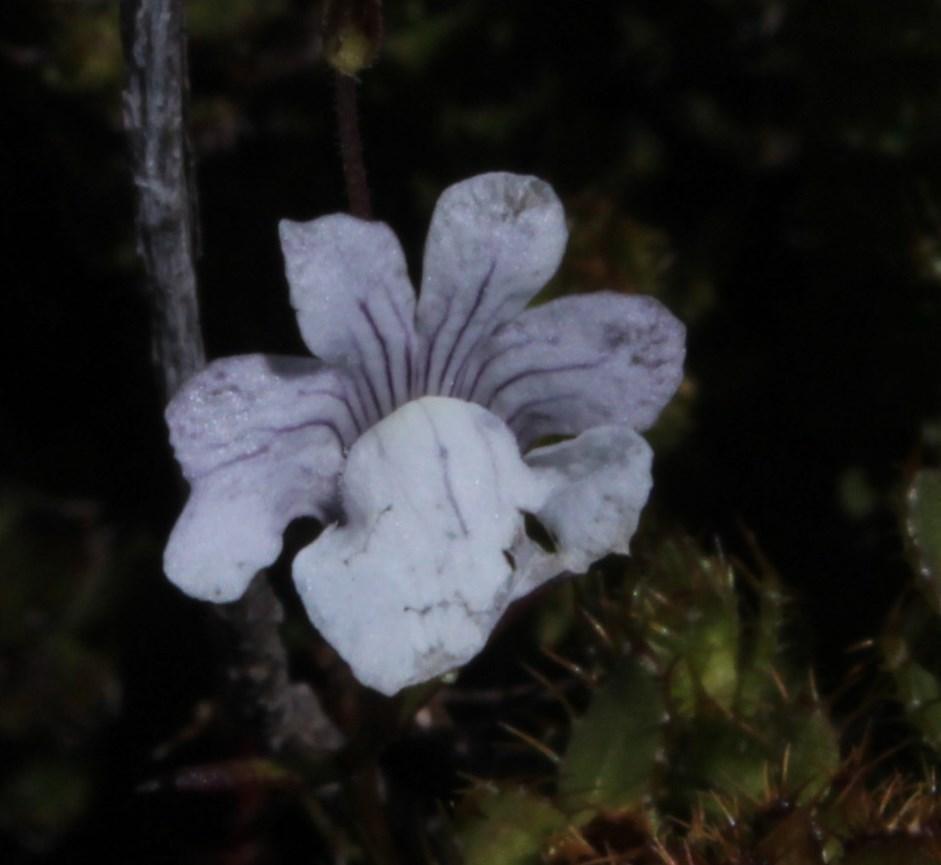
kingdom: Plantae
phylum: Tracheophyta
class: Magnoliopsida
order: Lamiales
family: Scrophulariaceae
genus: Nemesia
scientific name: Nemesia diffusa
